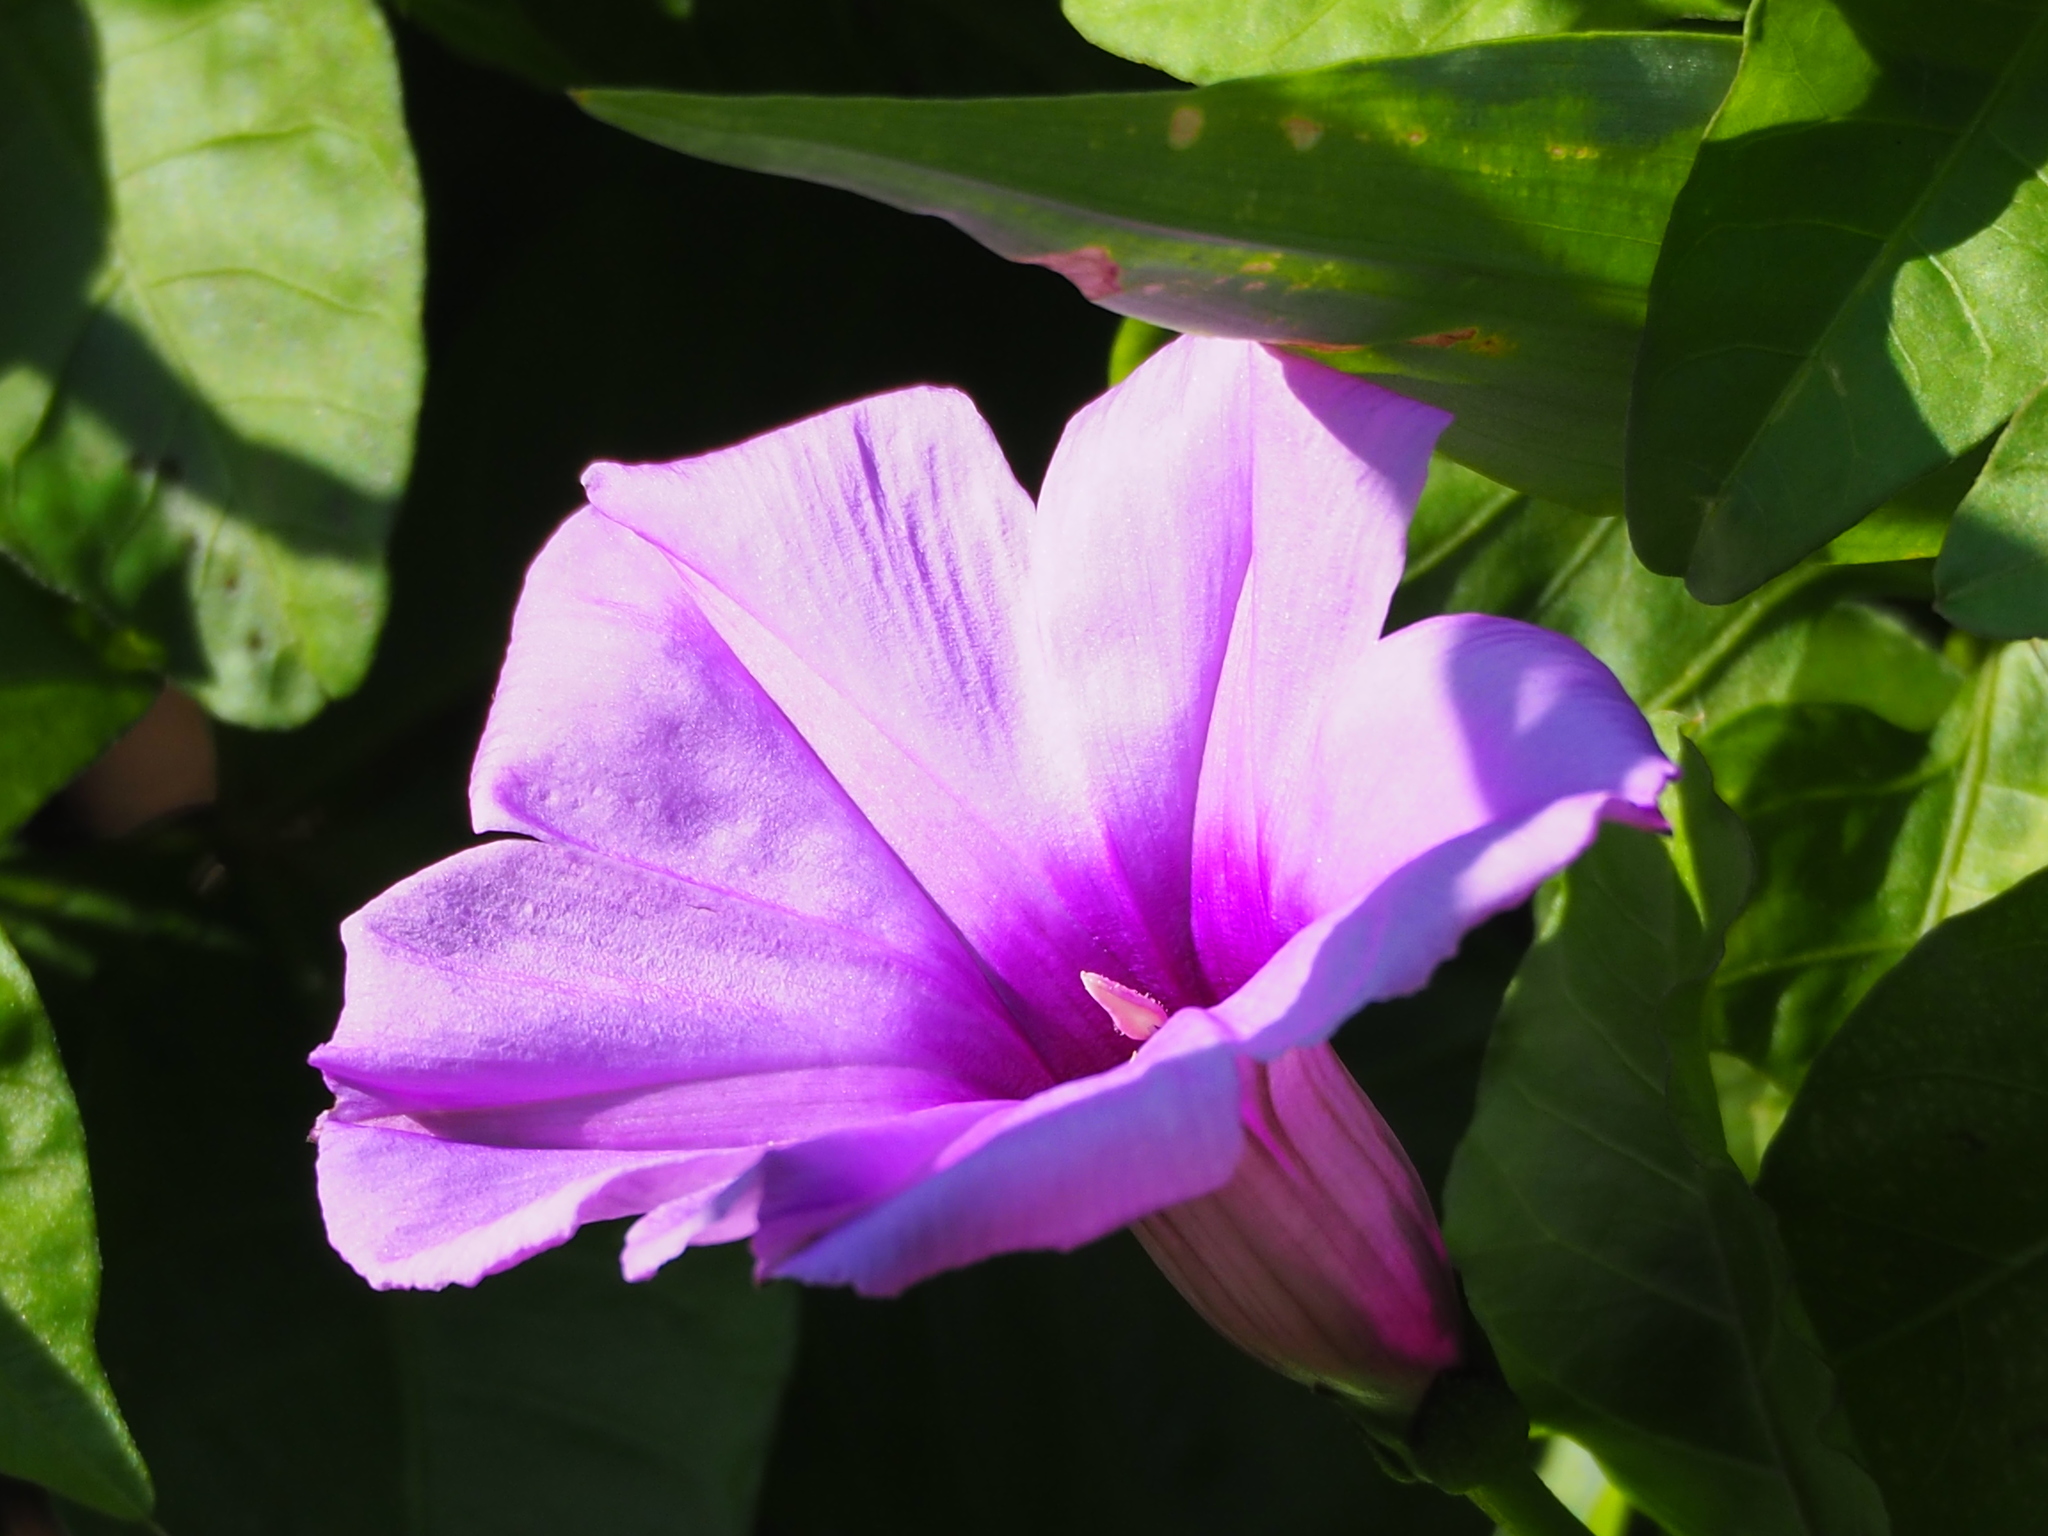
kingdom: Plantae
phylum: Tracheophyta
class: Magnoliopsida
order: Solanales
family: Convolvulaceae
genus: Ipomoea
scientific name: Ipomoea cairica
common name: Mile a minute vine
